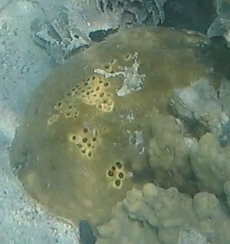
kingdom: Animalia
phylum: Porifera
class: Demospongiae
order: Clionaida
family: Clionaidae
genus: Spheciospongia
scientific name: Spheciospongia inconstans
